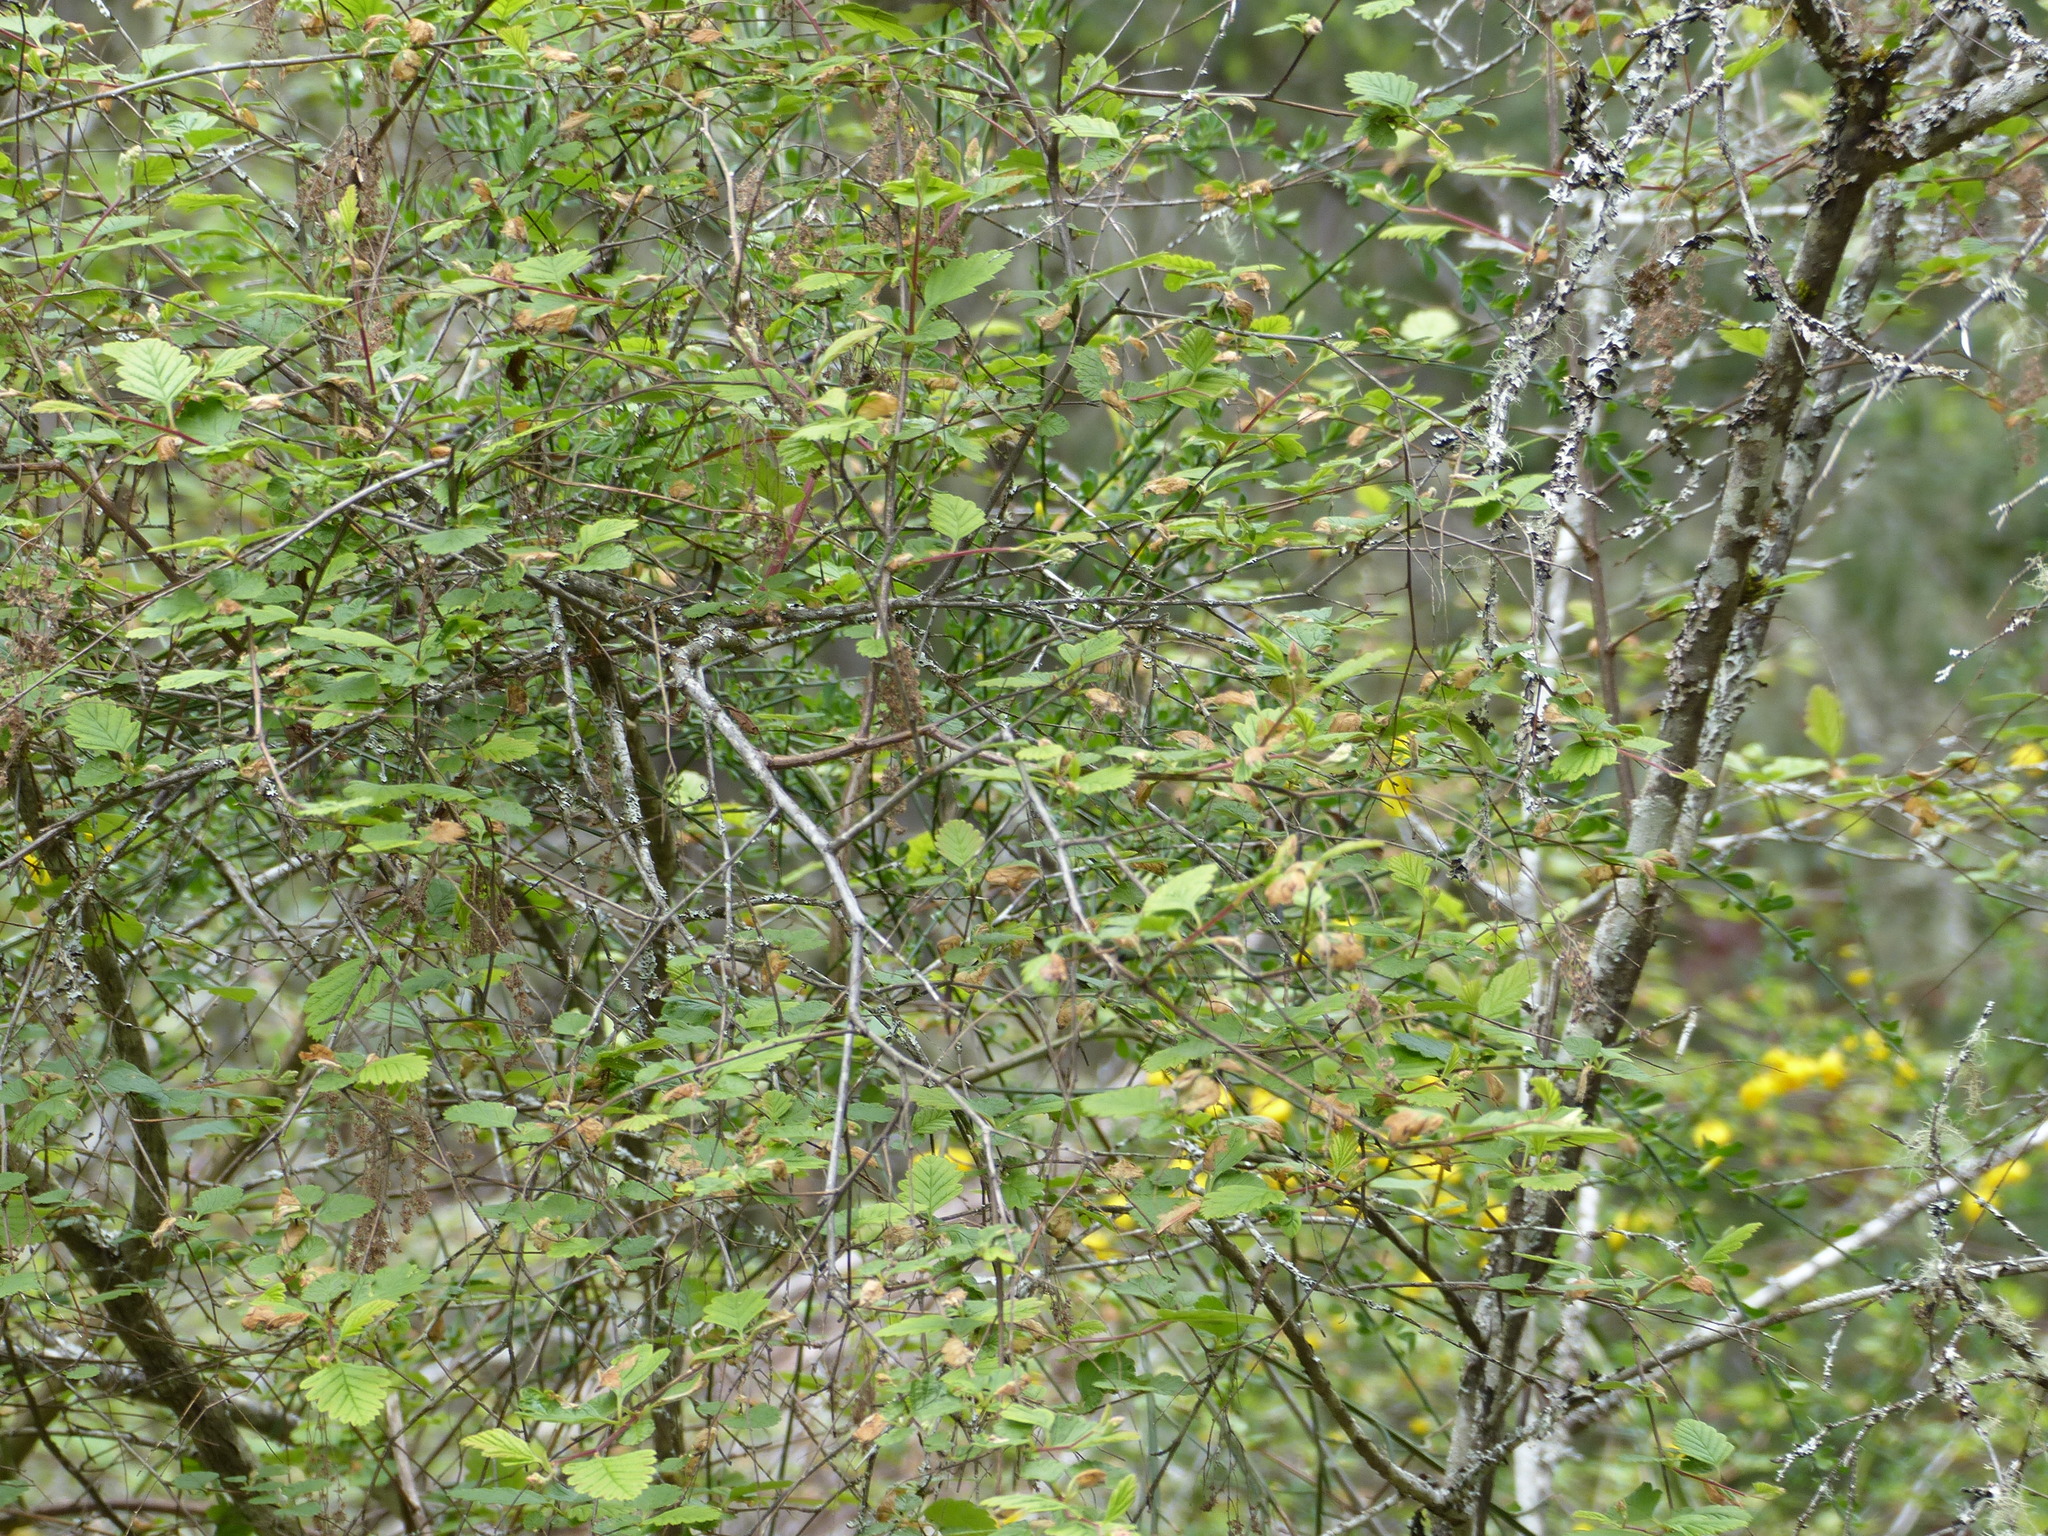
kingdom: Plantae
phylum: Tracheophyta
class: Magnoliopsida
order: Rosales
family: Rosaceae
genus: Holodiscus
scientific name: Holodiscus discolor
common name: Oceanspray
